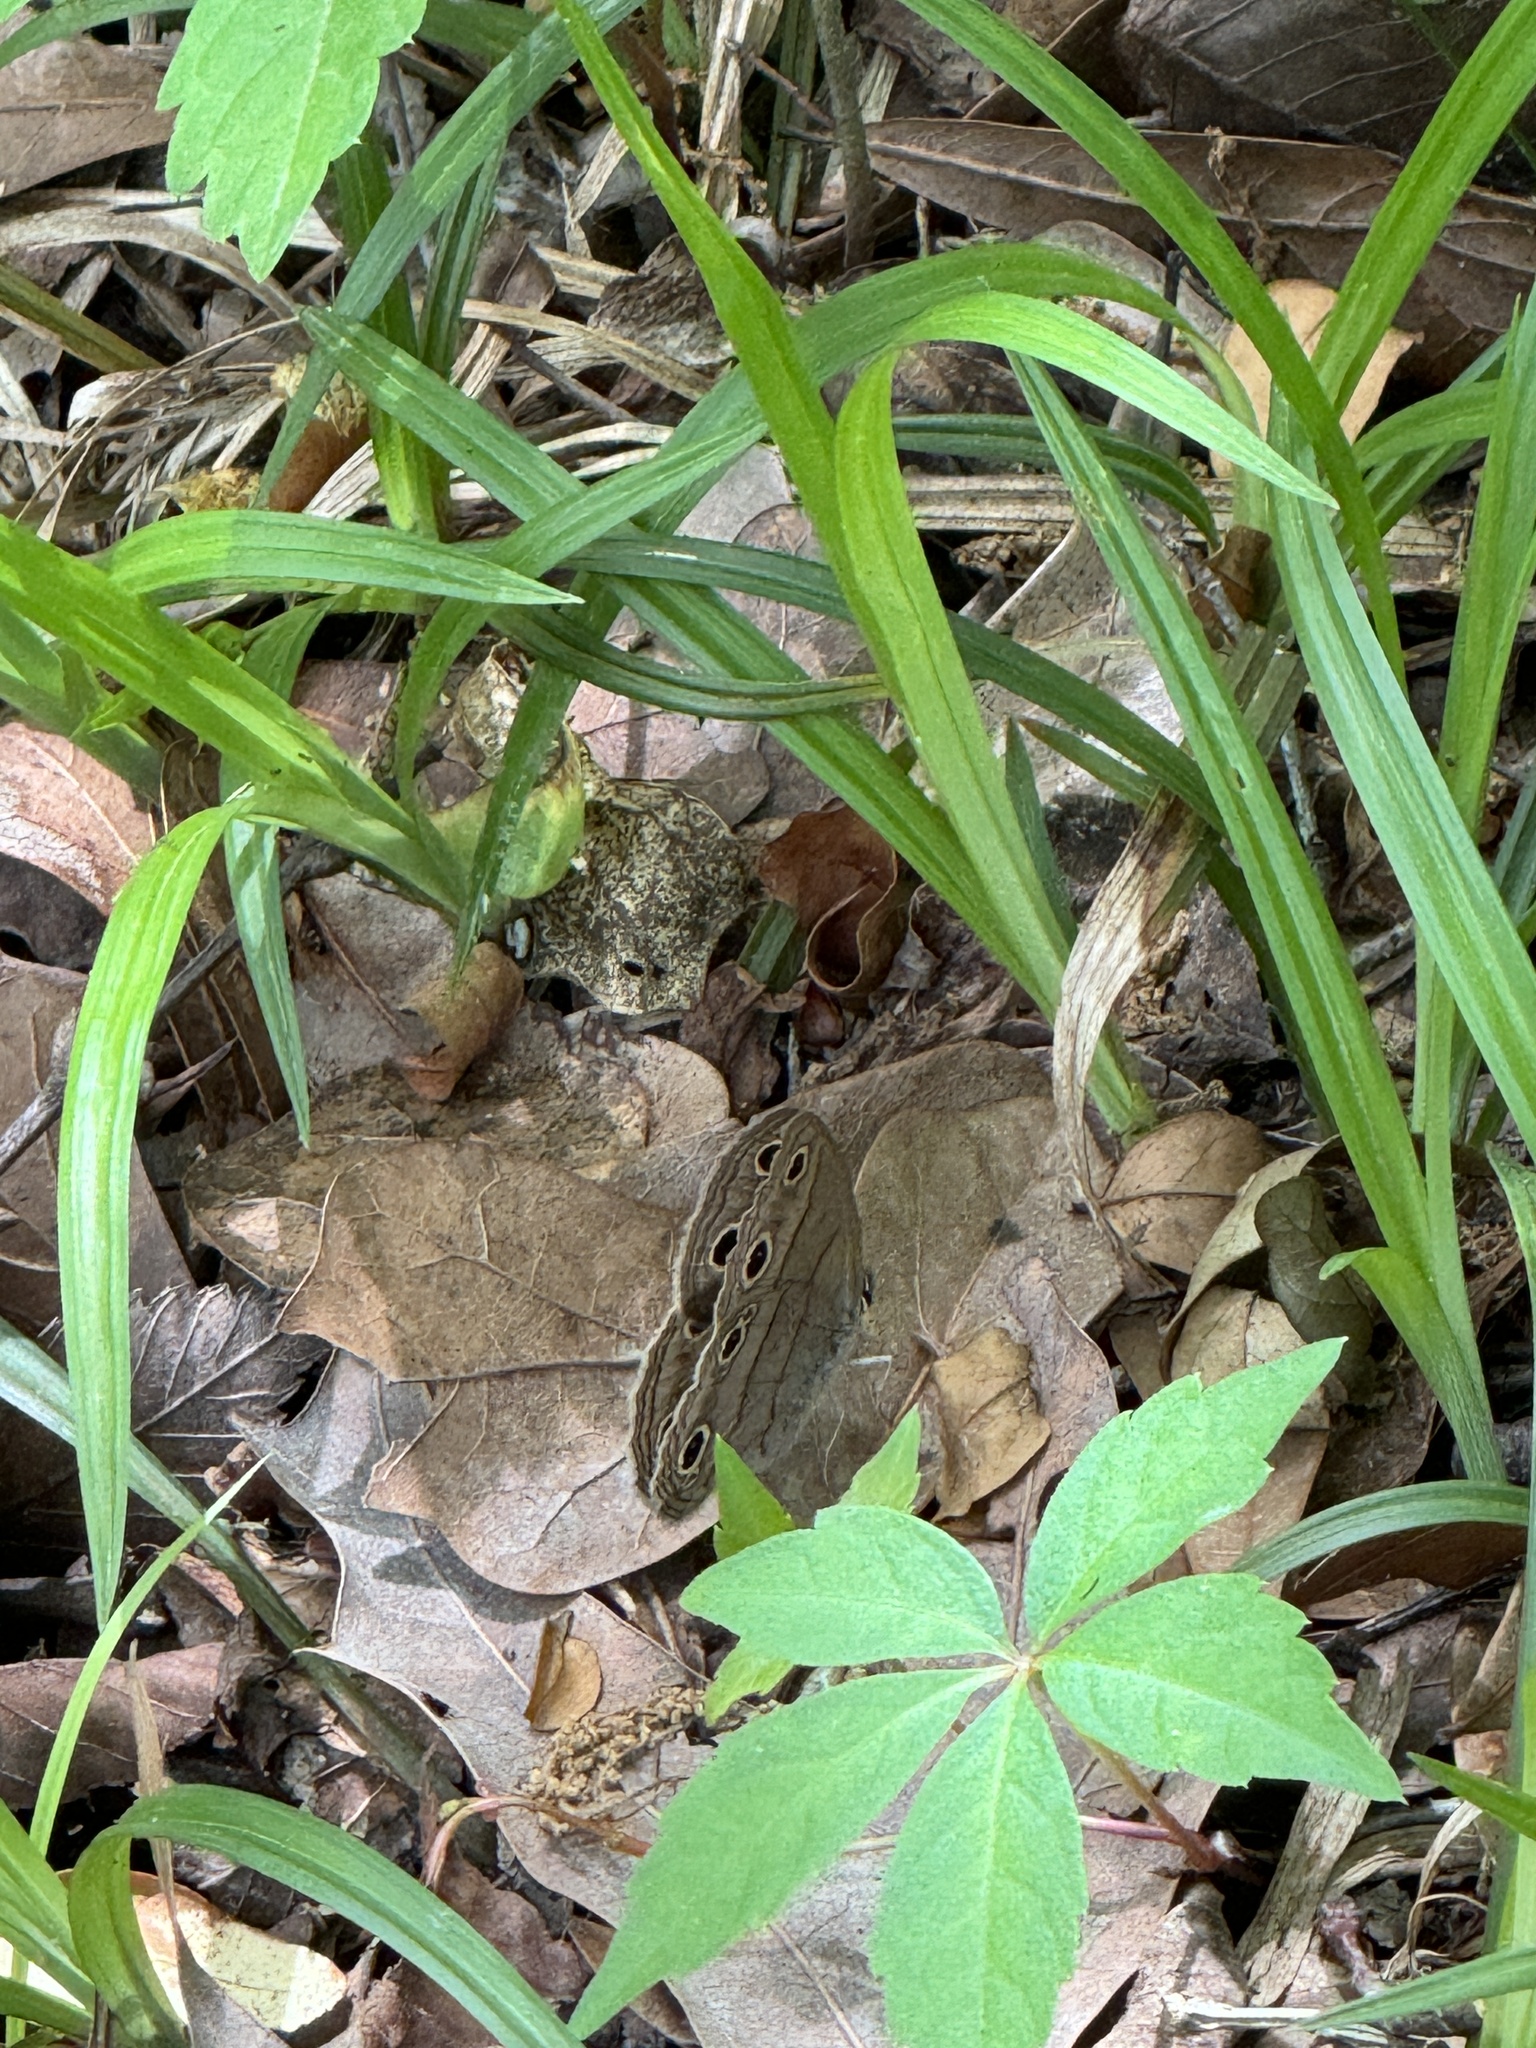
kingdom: Animalia
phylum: Arthropoda
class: Insecta
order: Lepidoptera
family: Nymphalidae
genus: Euptychia
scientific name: Euptychia cymela
